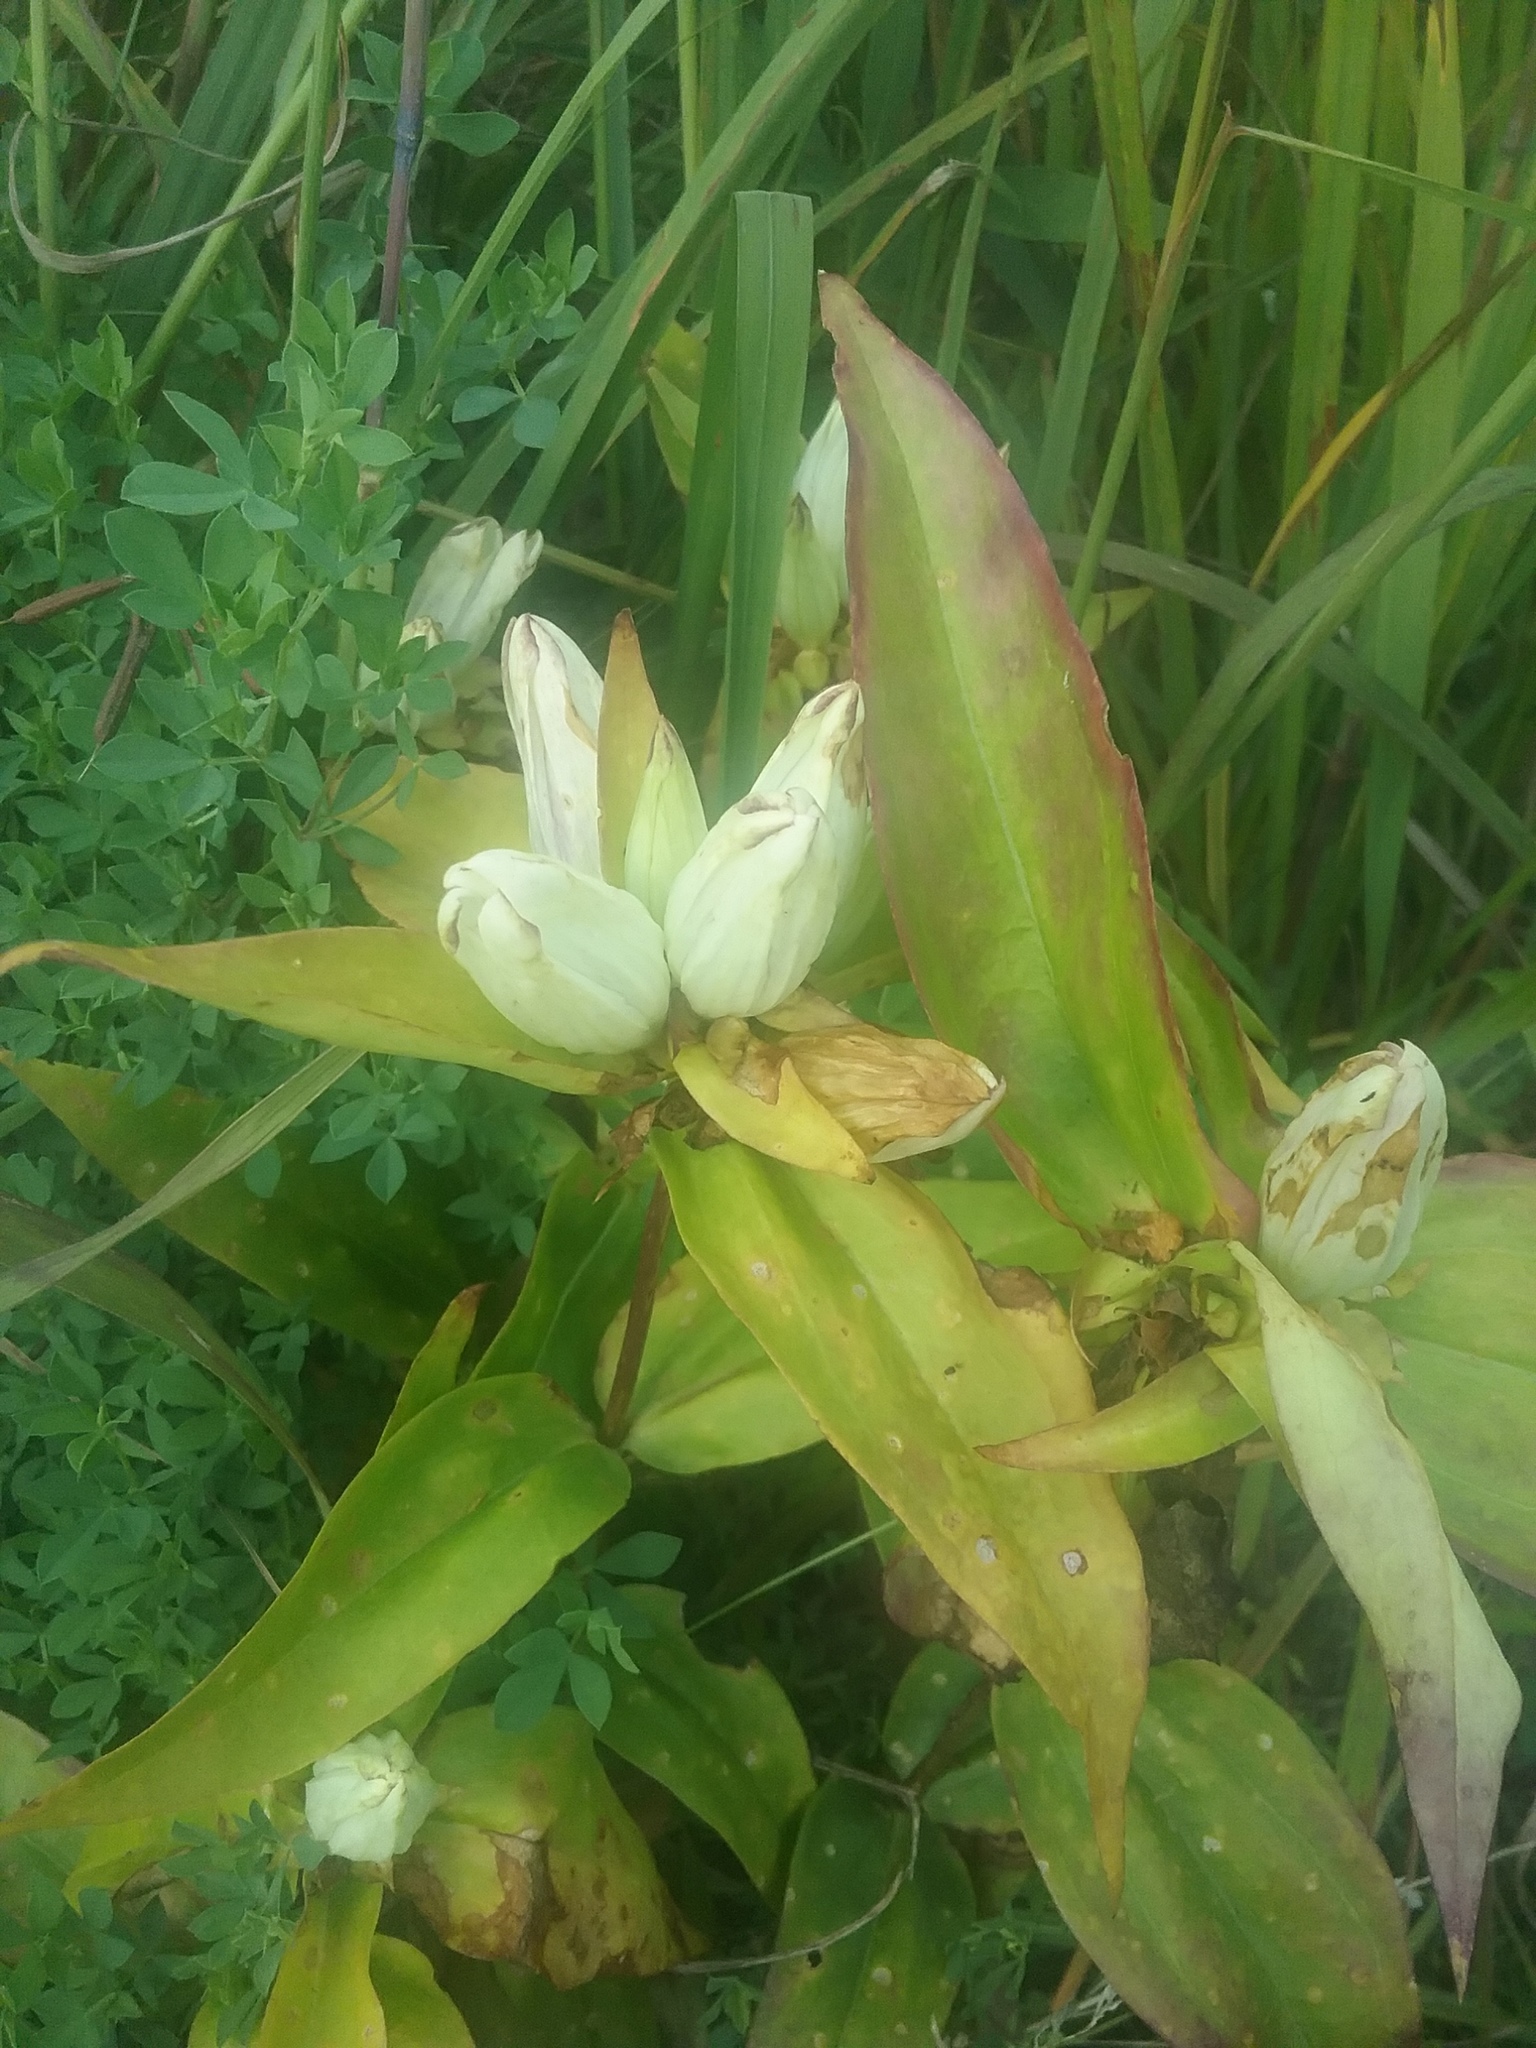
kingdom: Plantae
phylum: Tracheophyta
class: Magnoliopsida
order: Gentianales
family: Gentianaceae
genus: Gentiana
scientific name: Gentiana alba
